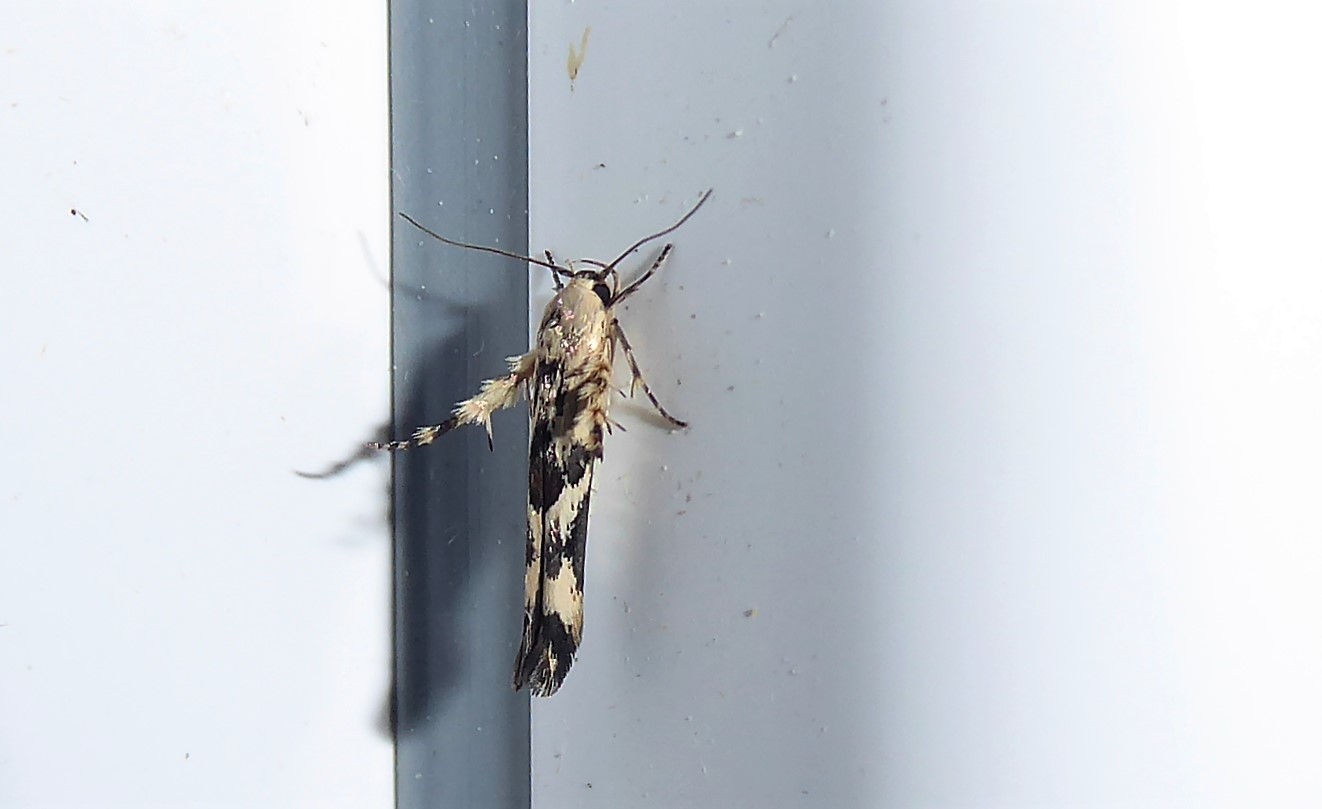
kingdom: Animalia
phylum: Arthropoda
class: Insecta
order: Lepidoptera
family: Stathmopodidae
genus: Stathmopoda
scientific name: Stathmopoda melanochra
